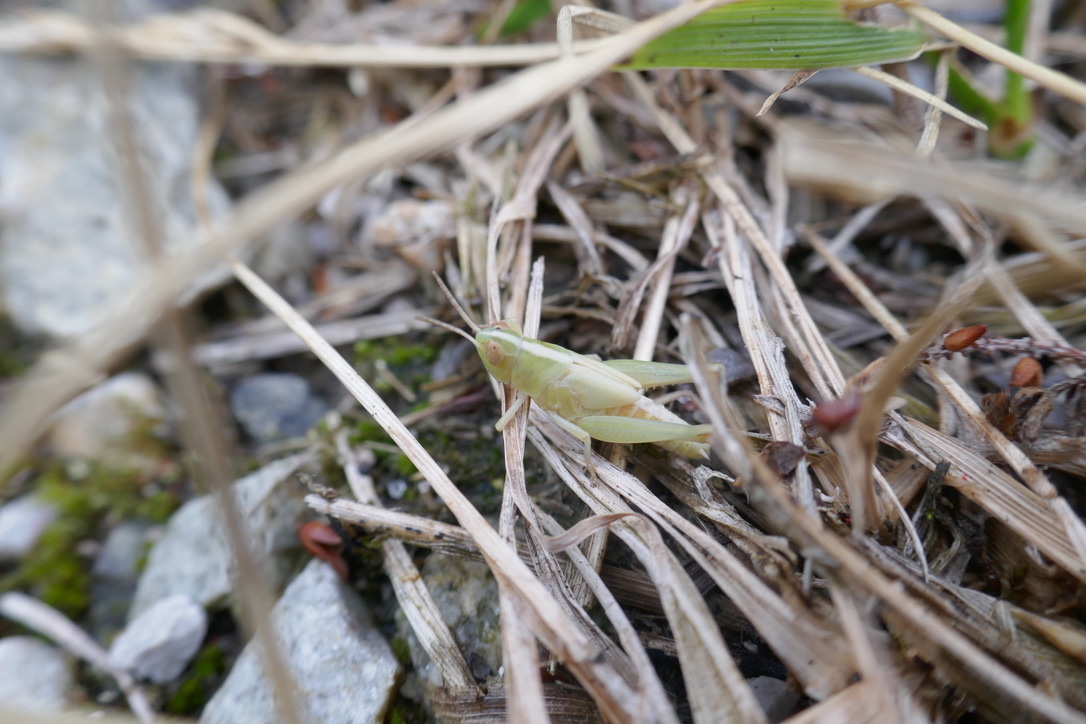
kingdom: Animalia
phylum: Arthropoda
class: Insecta
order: Orthoptera
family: Acrididae
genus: Aiolopus
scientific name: Aiolopus thalassinus
